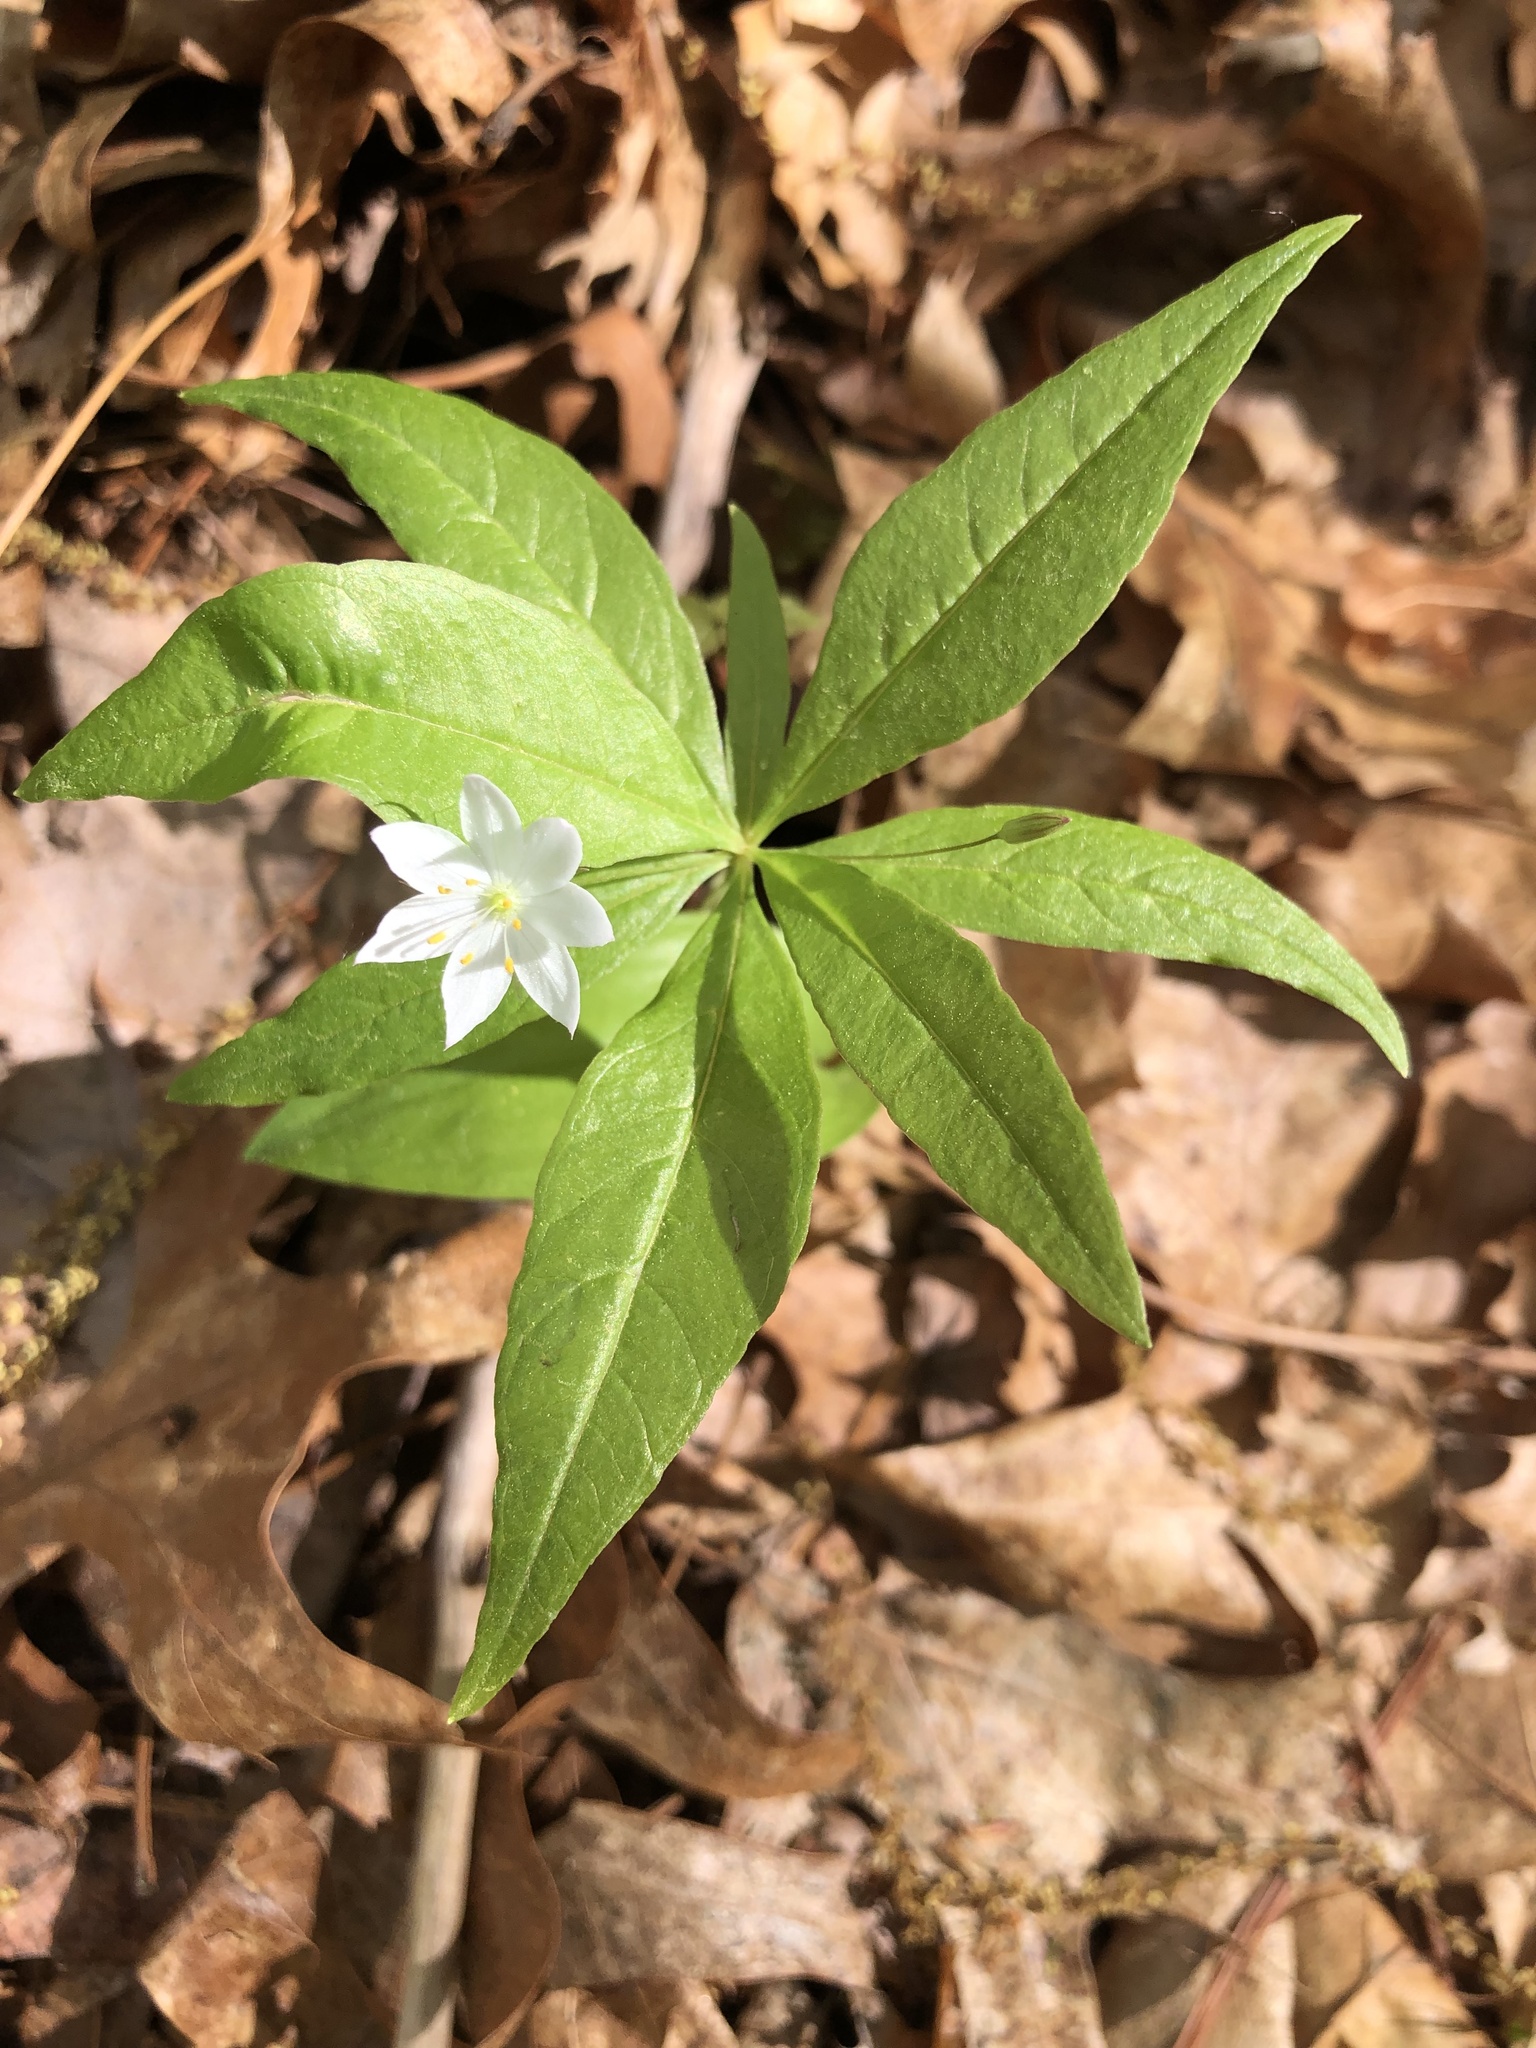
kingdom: Plantae
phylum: Tracheophyta
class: Magnoliopsida
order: Ericales
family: Primulaceae
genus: Lysimachia
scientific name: Lysimachia borealis
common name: American starflower
